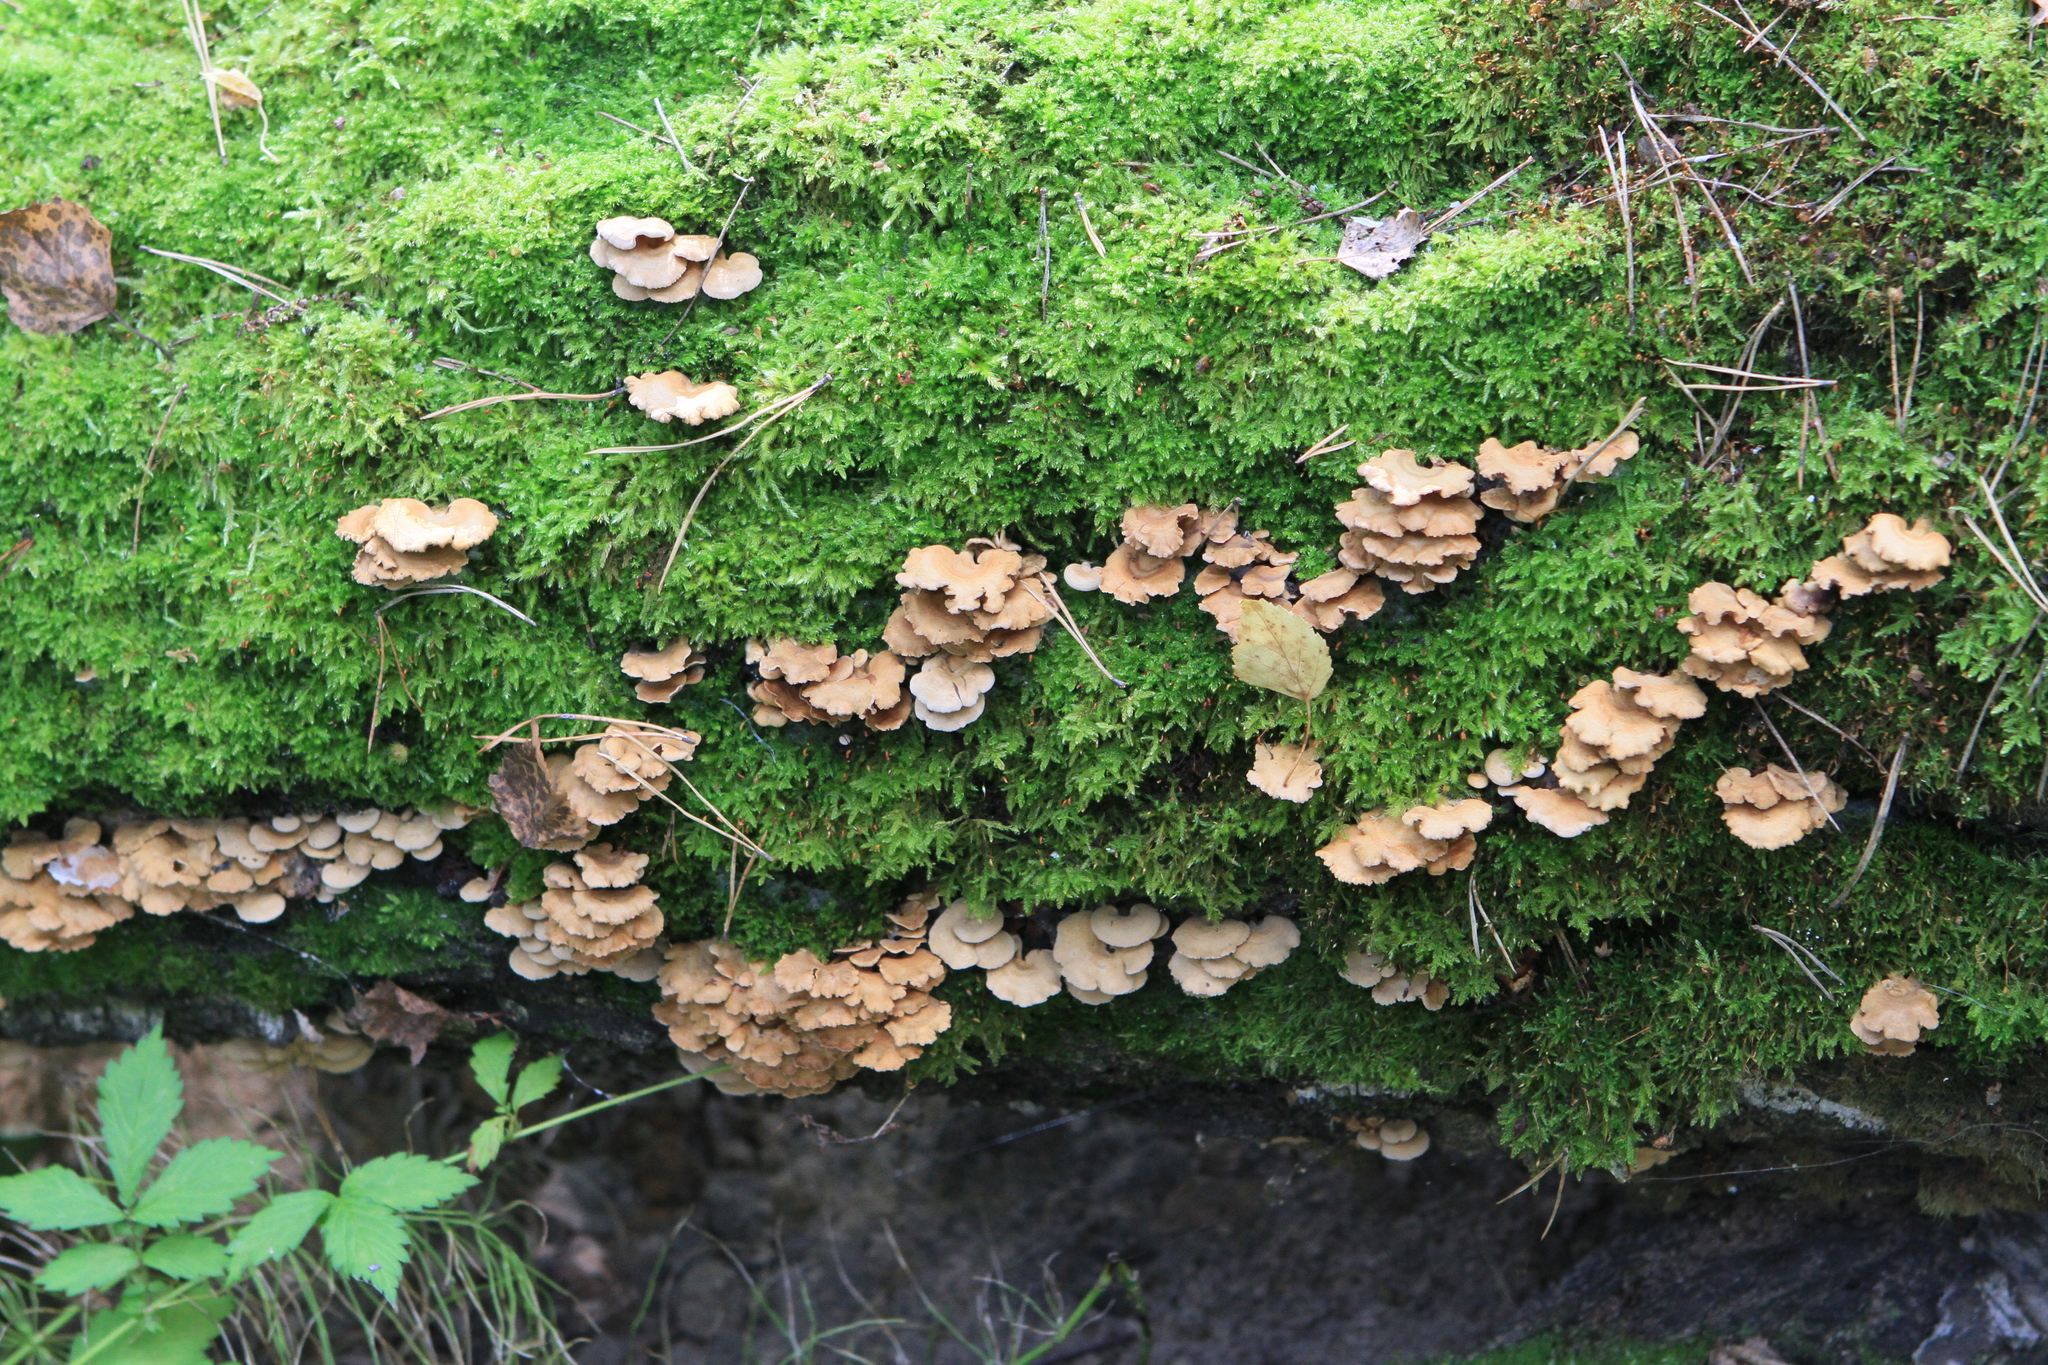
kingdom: Fungi
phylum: Basidiomycota
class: Agaricomycetes
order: Agaricales
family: Mycenaceae
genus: Panellus
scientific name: Panellus stipticus
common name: Bitter oysterling
